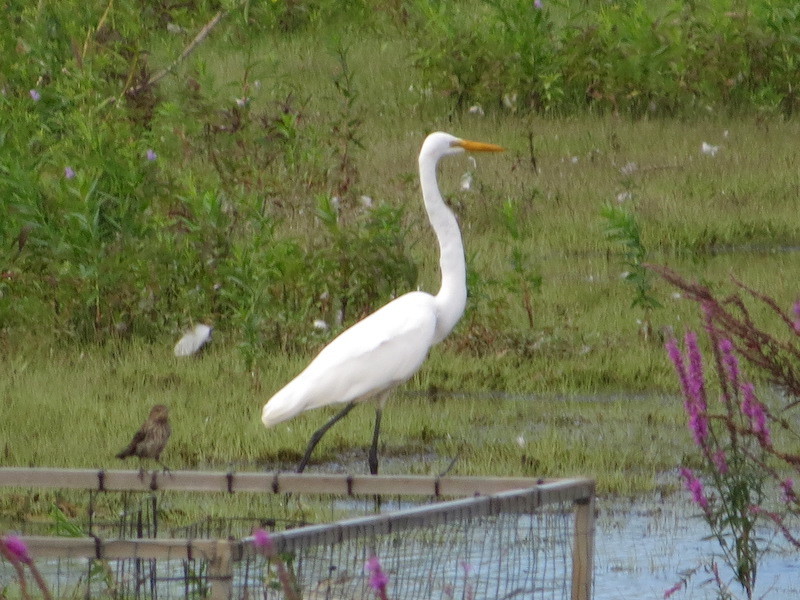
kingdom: Animalia
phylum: Chordata
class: Aves
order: Pelecaniformes
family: Ardeidae
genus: Ardea
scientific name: Ardea alba
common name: Great egret
